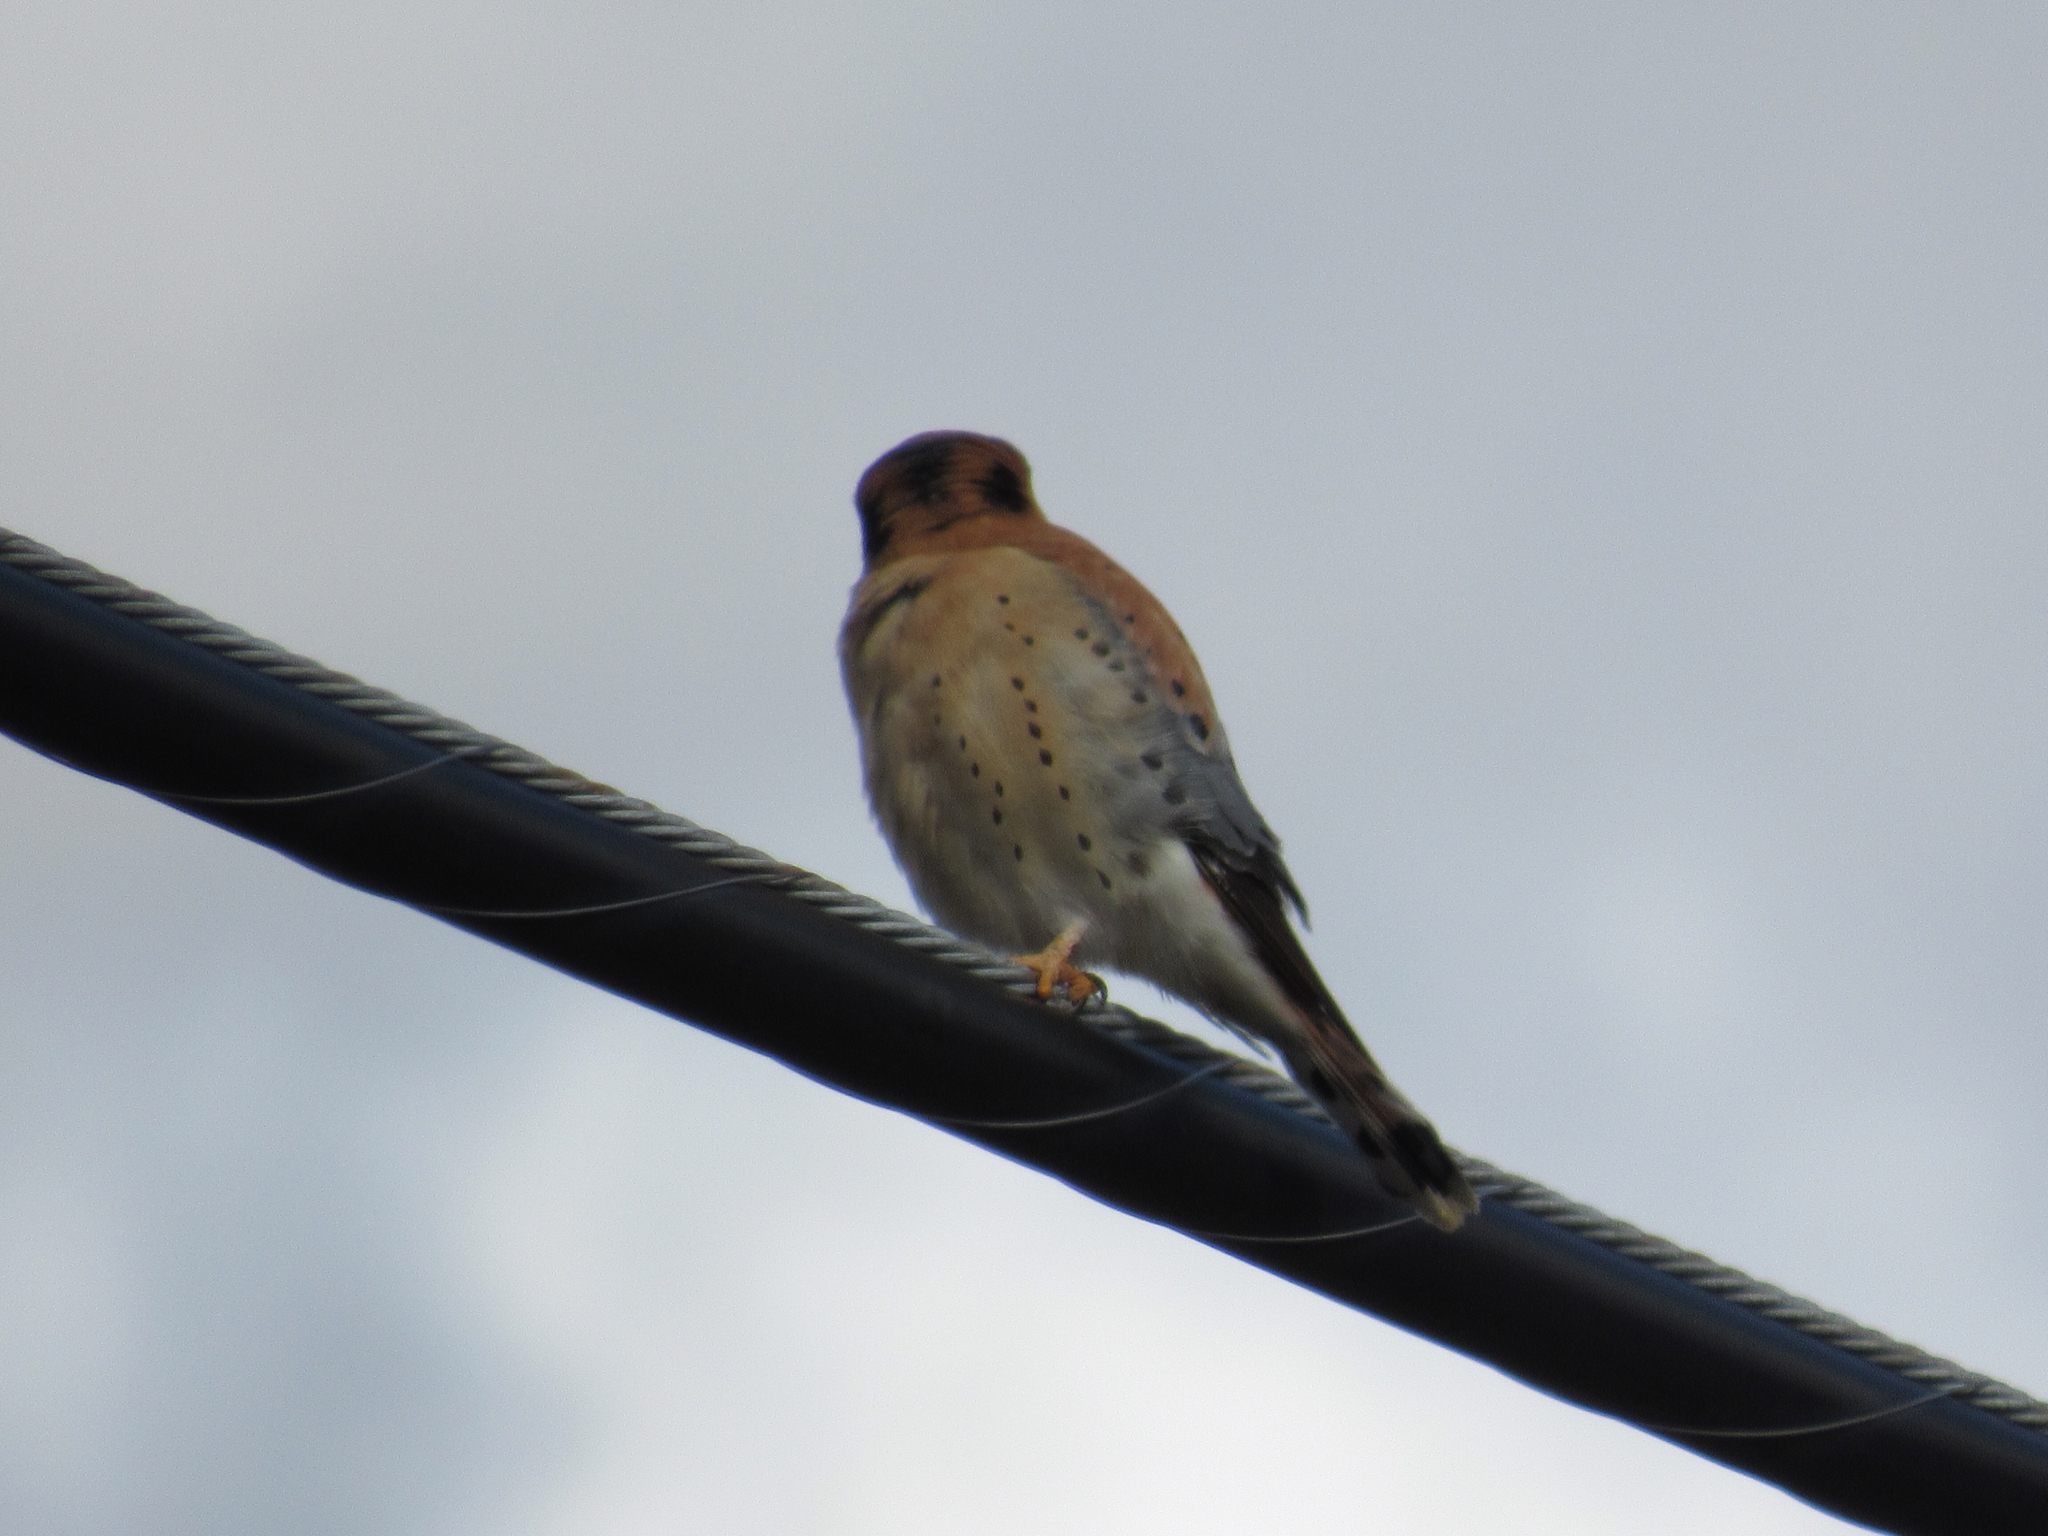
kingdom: Animalia
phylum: Chordata
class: Aves
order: Falconiformes
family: Falconidae
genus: Falco
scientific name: Falco sparverius
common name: American kestrel
